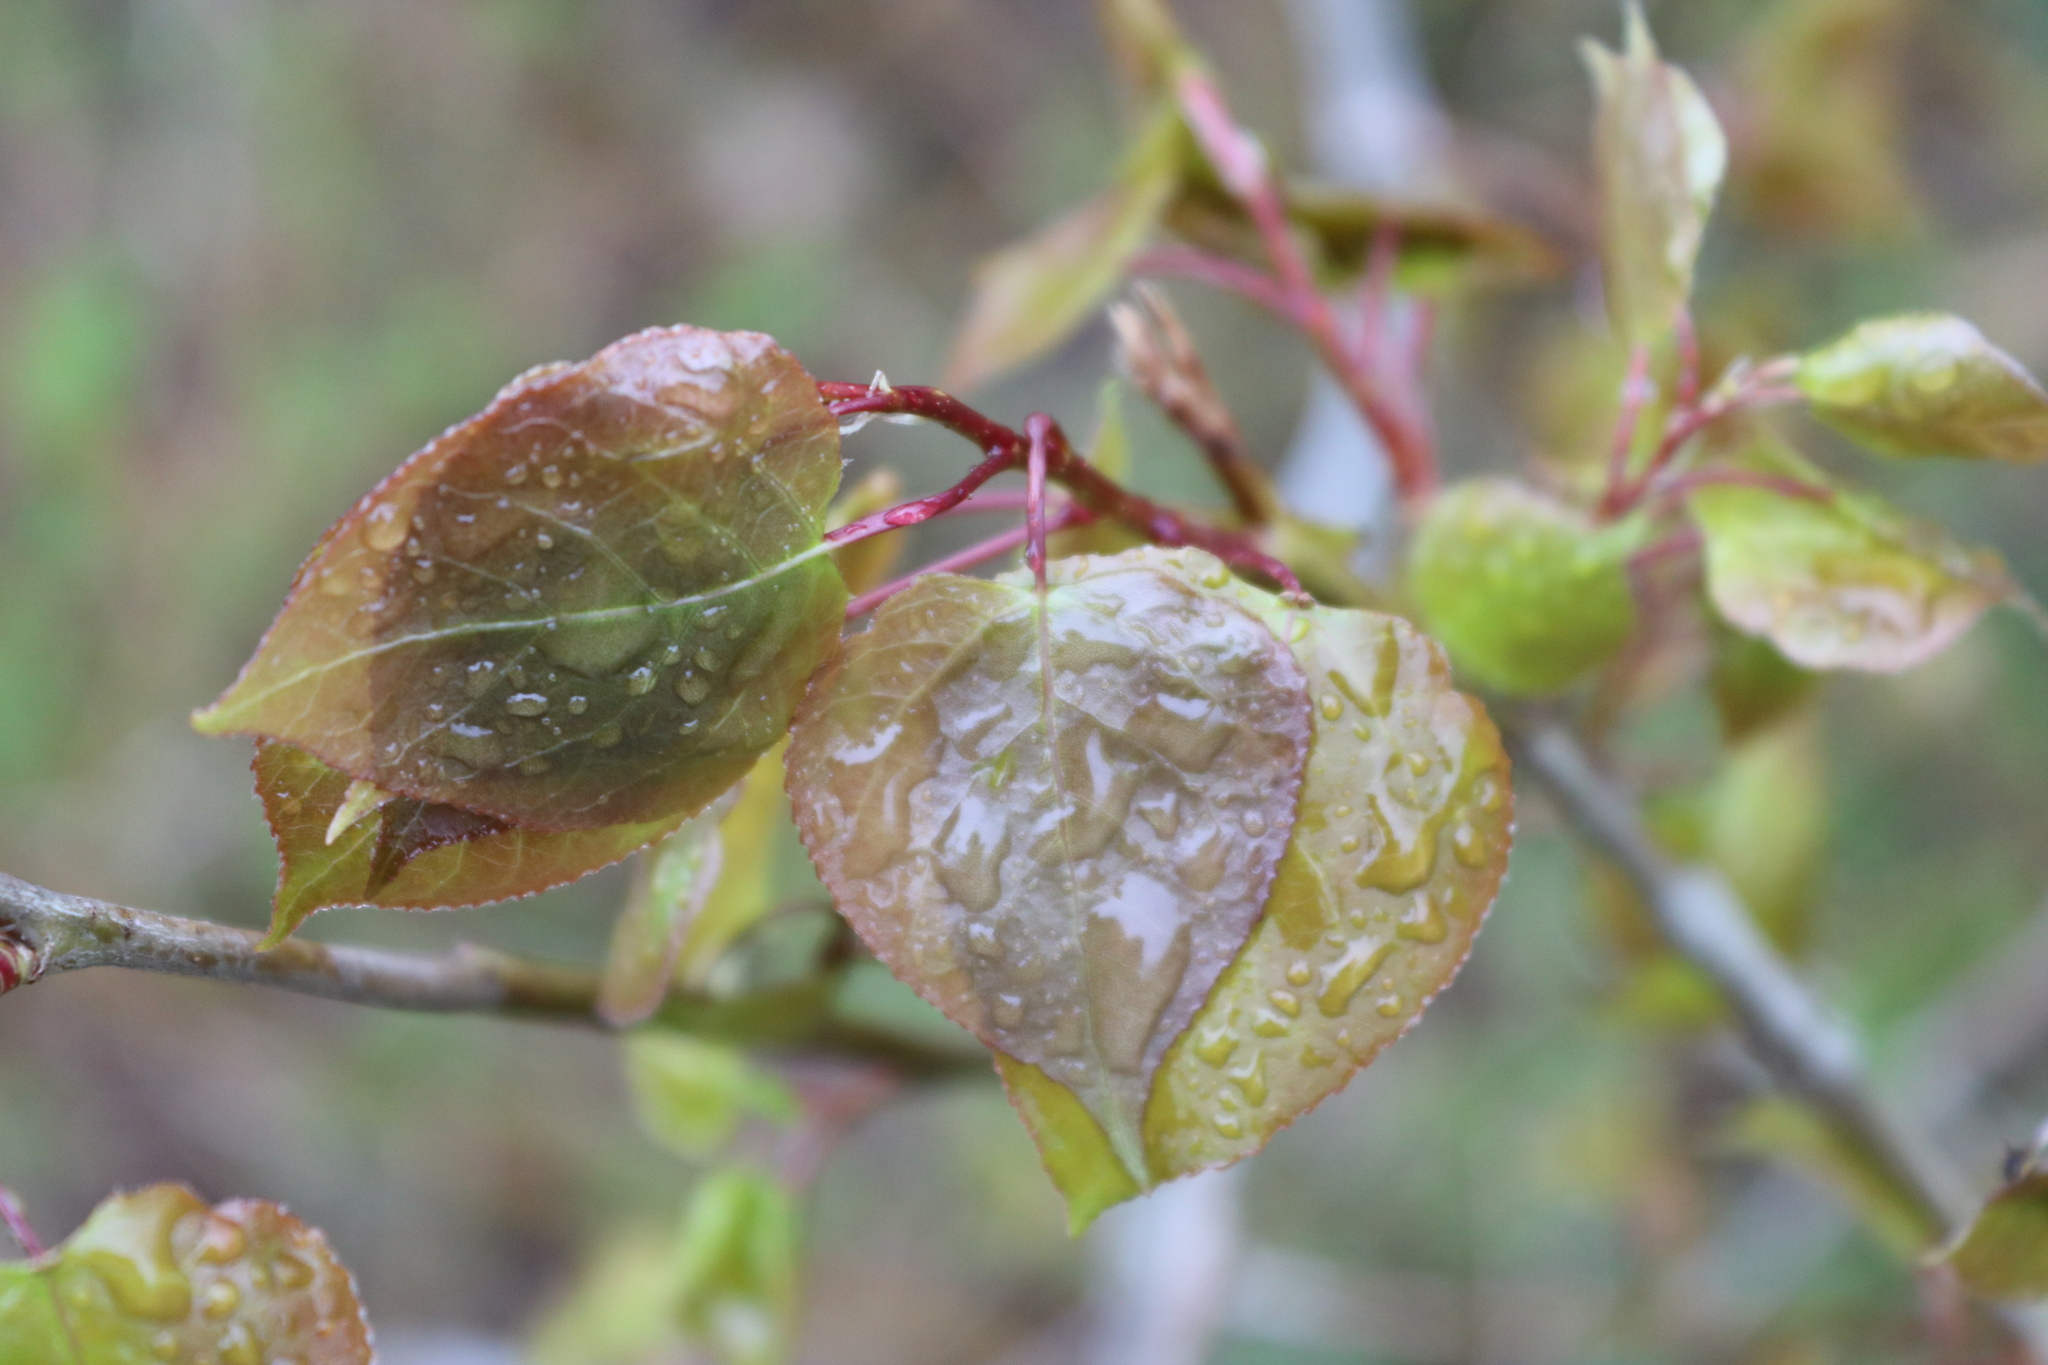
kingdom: Plantae
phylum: Tracheophyta
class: Magnoliopsida
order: Malpighiales
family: Salicaceae
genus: Populus
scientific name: Populus tremuloides
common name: Quaking aspen
